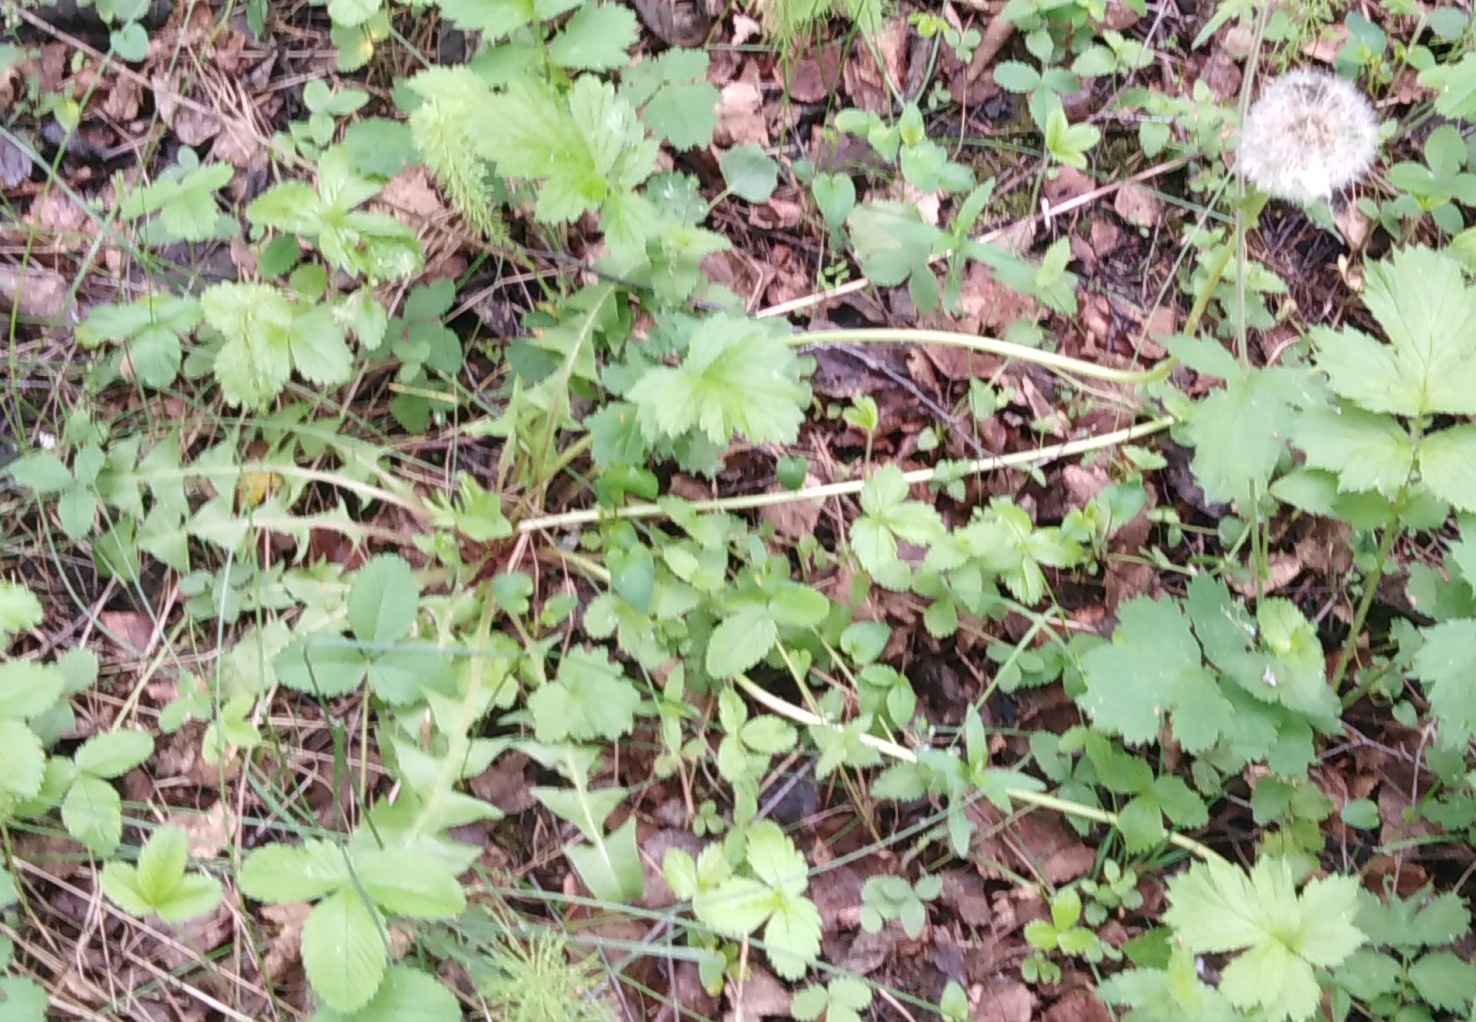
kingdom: Plantae
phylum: Tracheophyta
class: Magnoliopsida
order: Asterales
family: Asteraceae
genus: Taraxacum
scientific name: Taraxacum officinale
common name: Common dandelion
